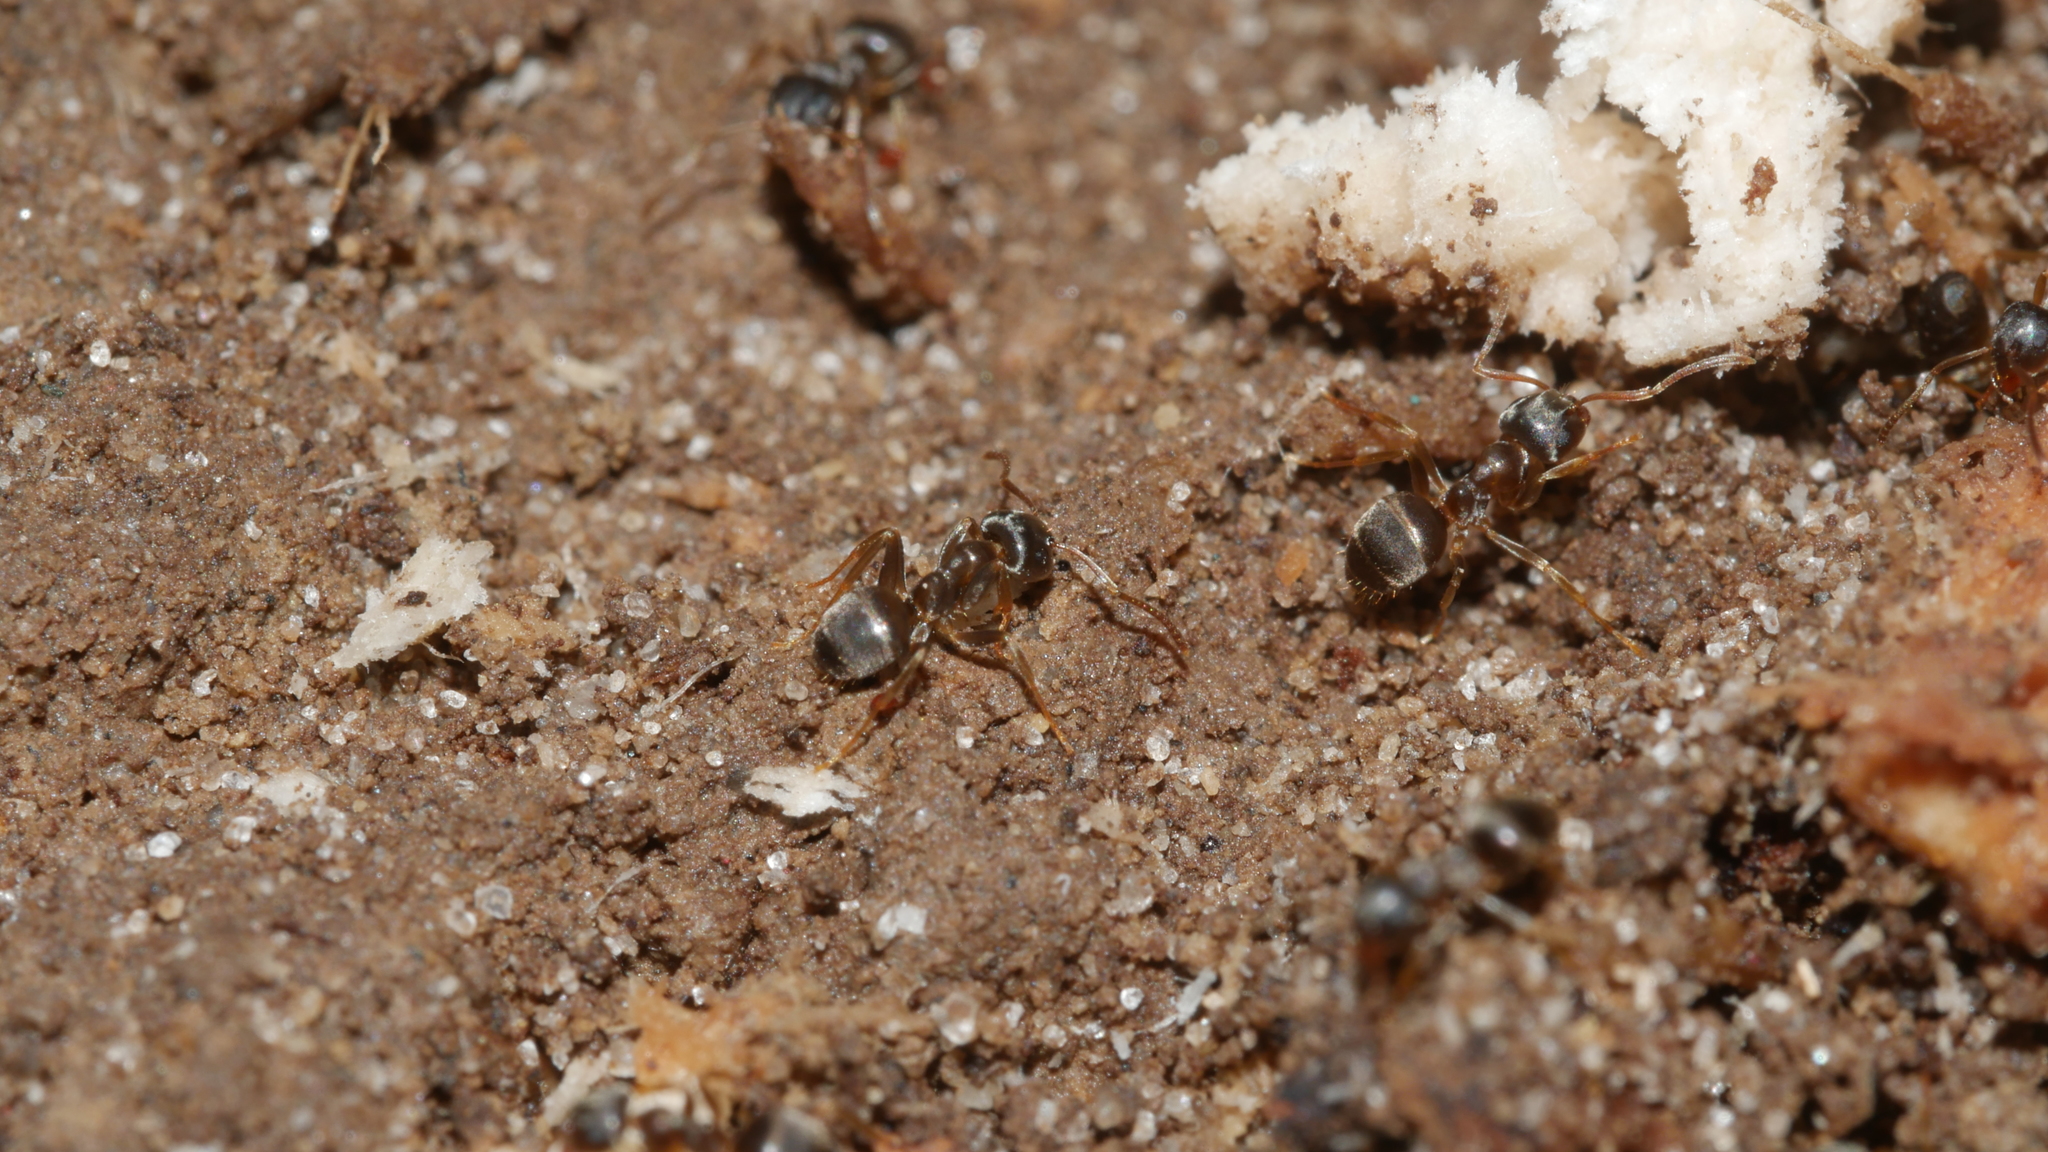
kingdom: Animalia
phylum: Arthropoda
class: Insecta
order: Hymenoptera
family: Formicidae
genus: Lasius
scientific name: Lasius americanus
